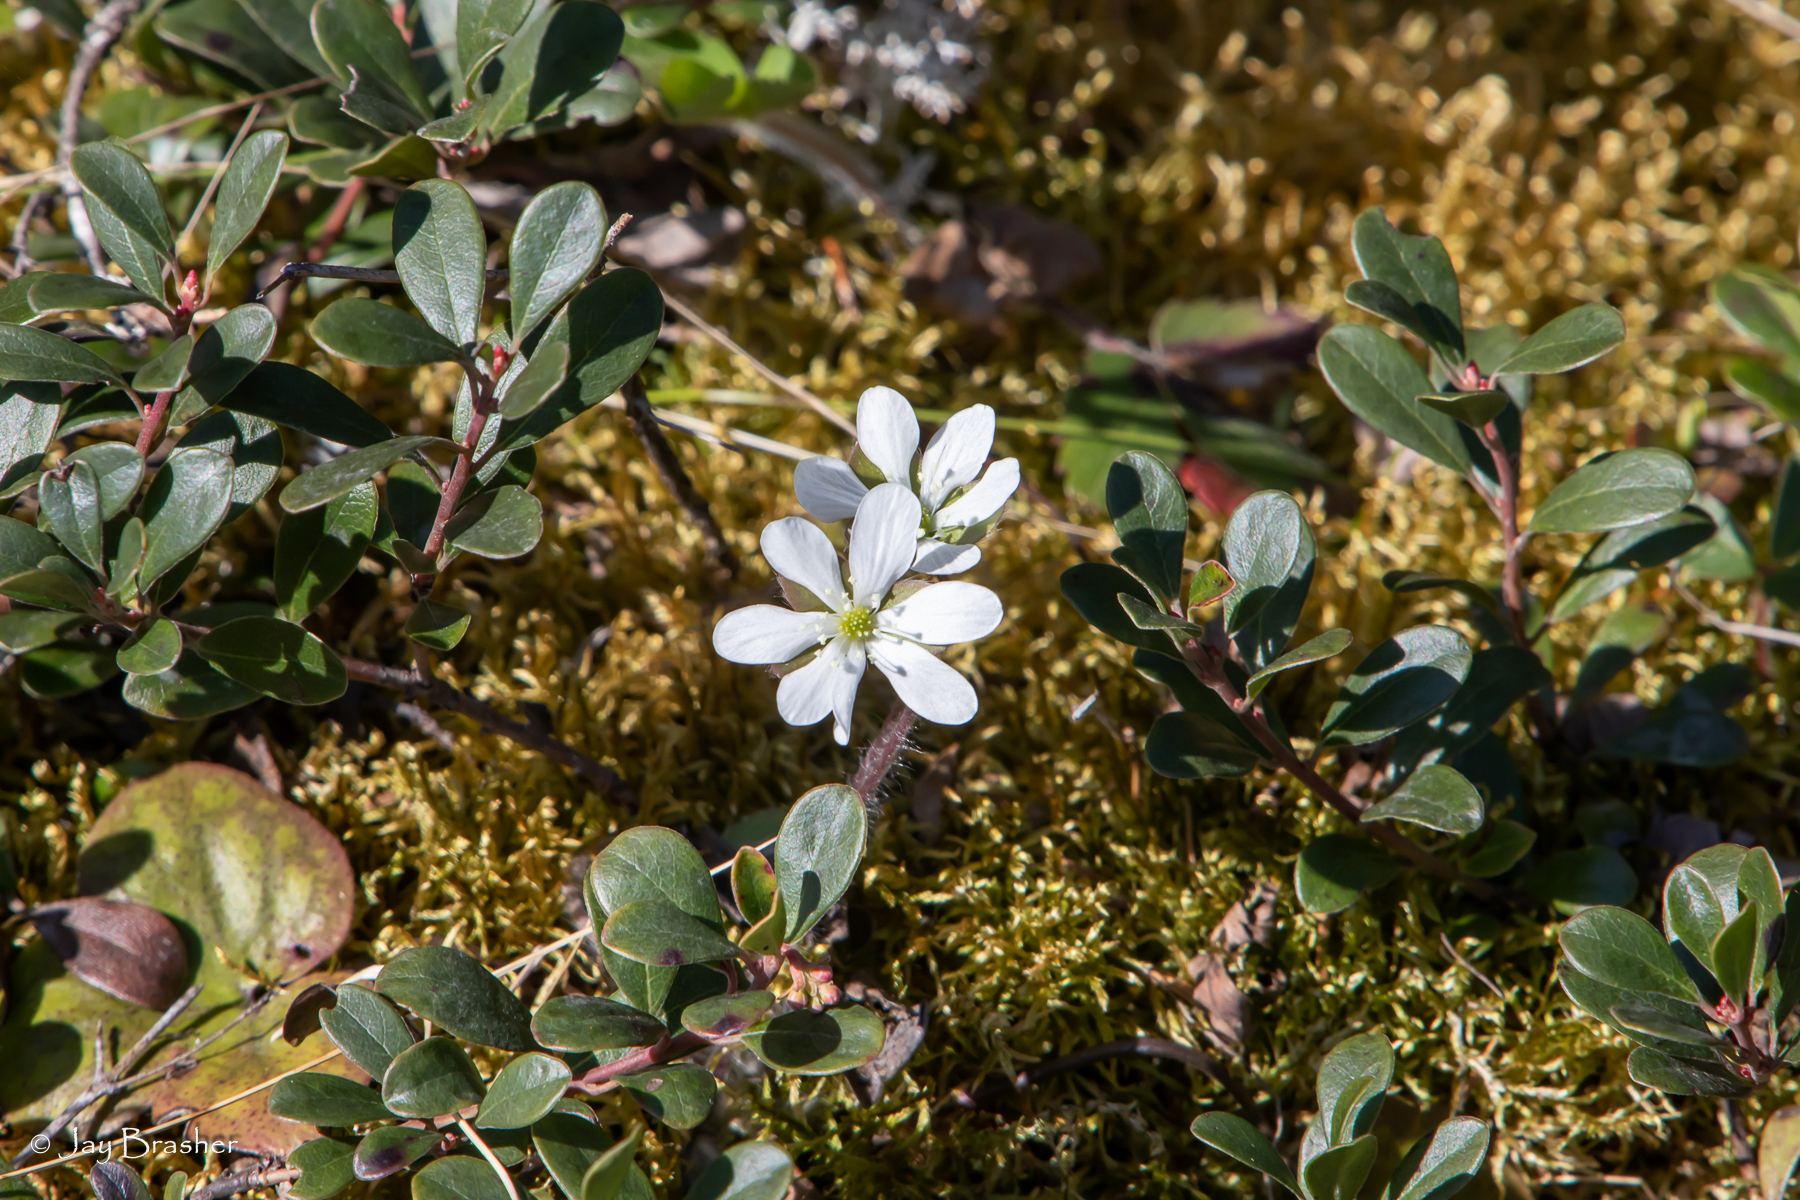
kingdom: Plantae
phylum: Tracheophyta
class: Magnoliopsida
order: Ranunculales
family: Ranunculaceae
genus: Hepatica
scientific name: Hepatica americana
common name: American hepatica
